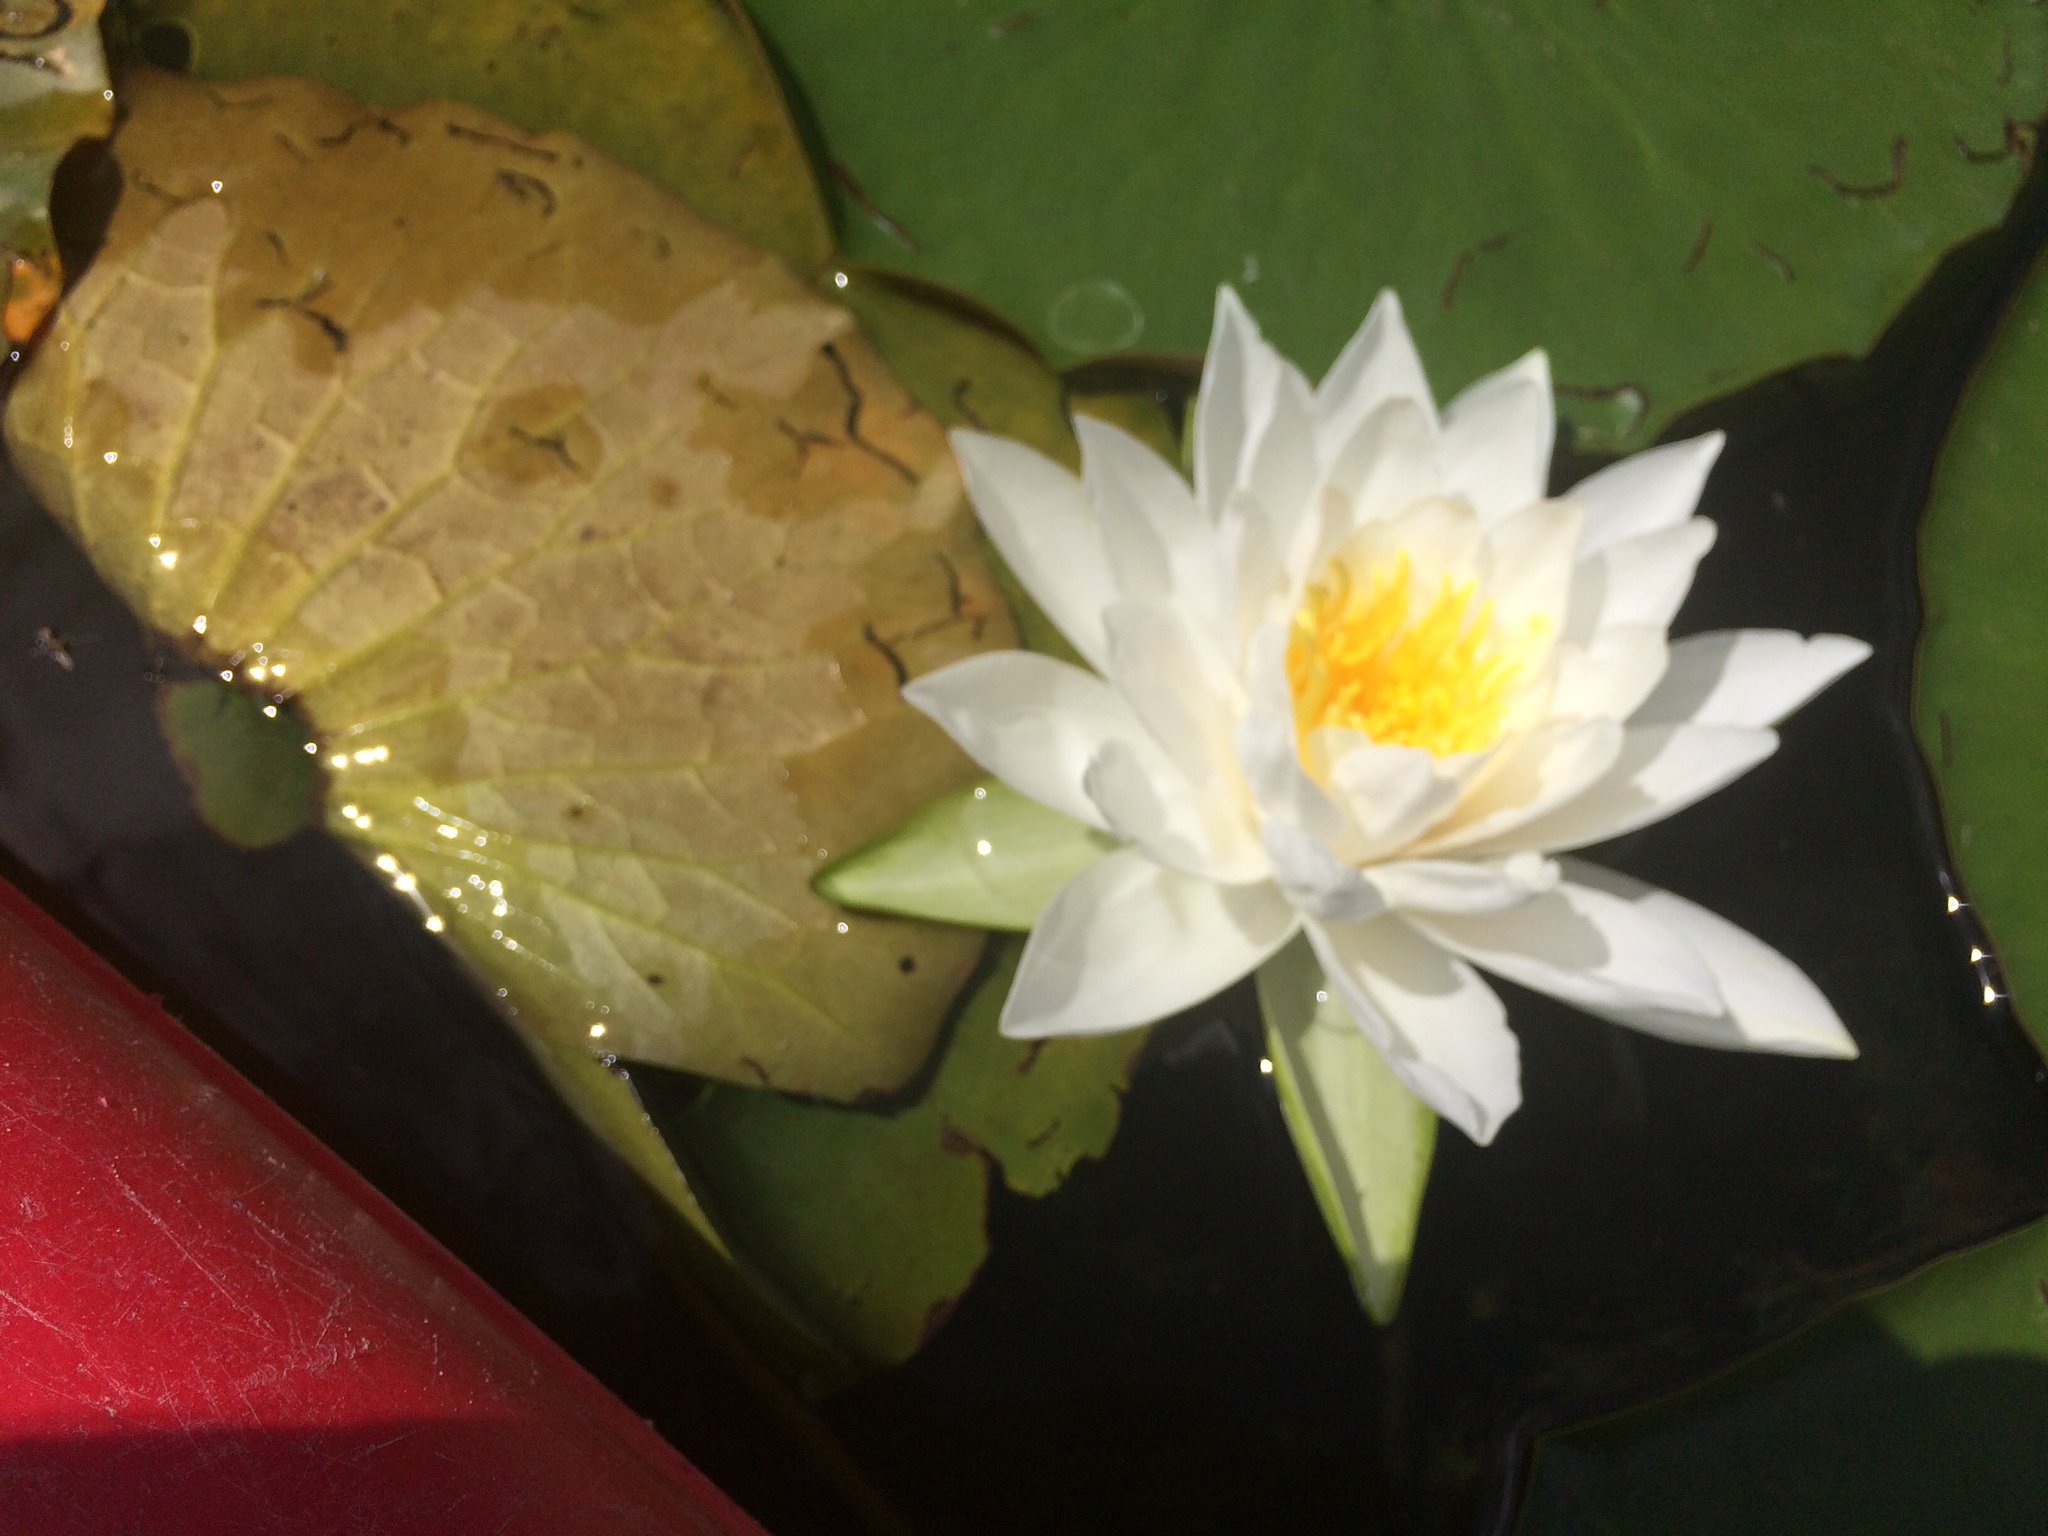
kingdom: Plantae
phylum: Tracheophyta
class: Magnoliopsida
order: Nymphaeales
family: Nymphaeaceae
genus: Nymphaea
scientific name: Nymphaea odorata
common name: Fragrant water-lily
